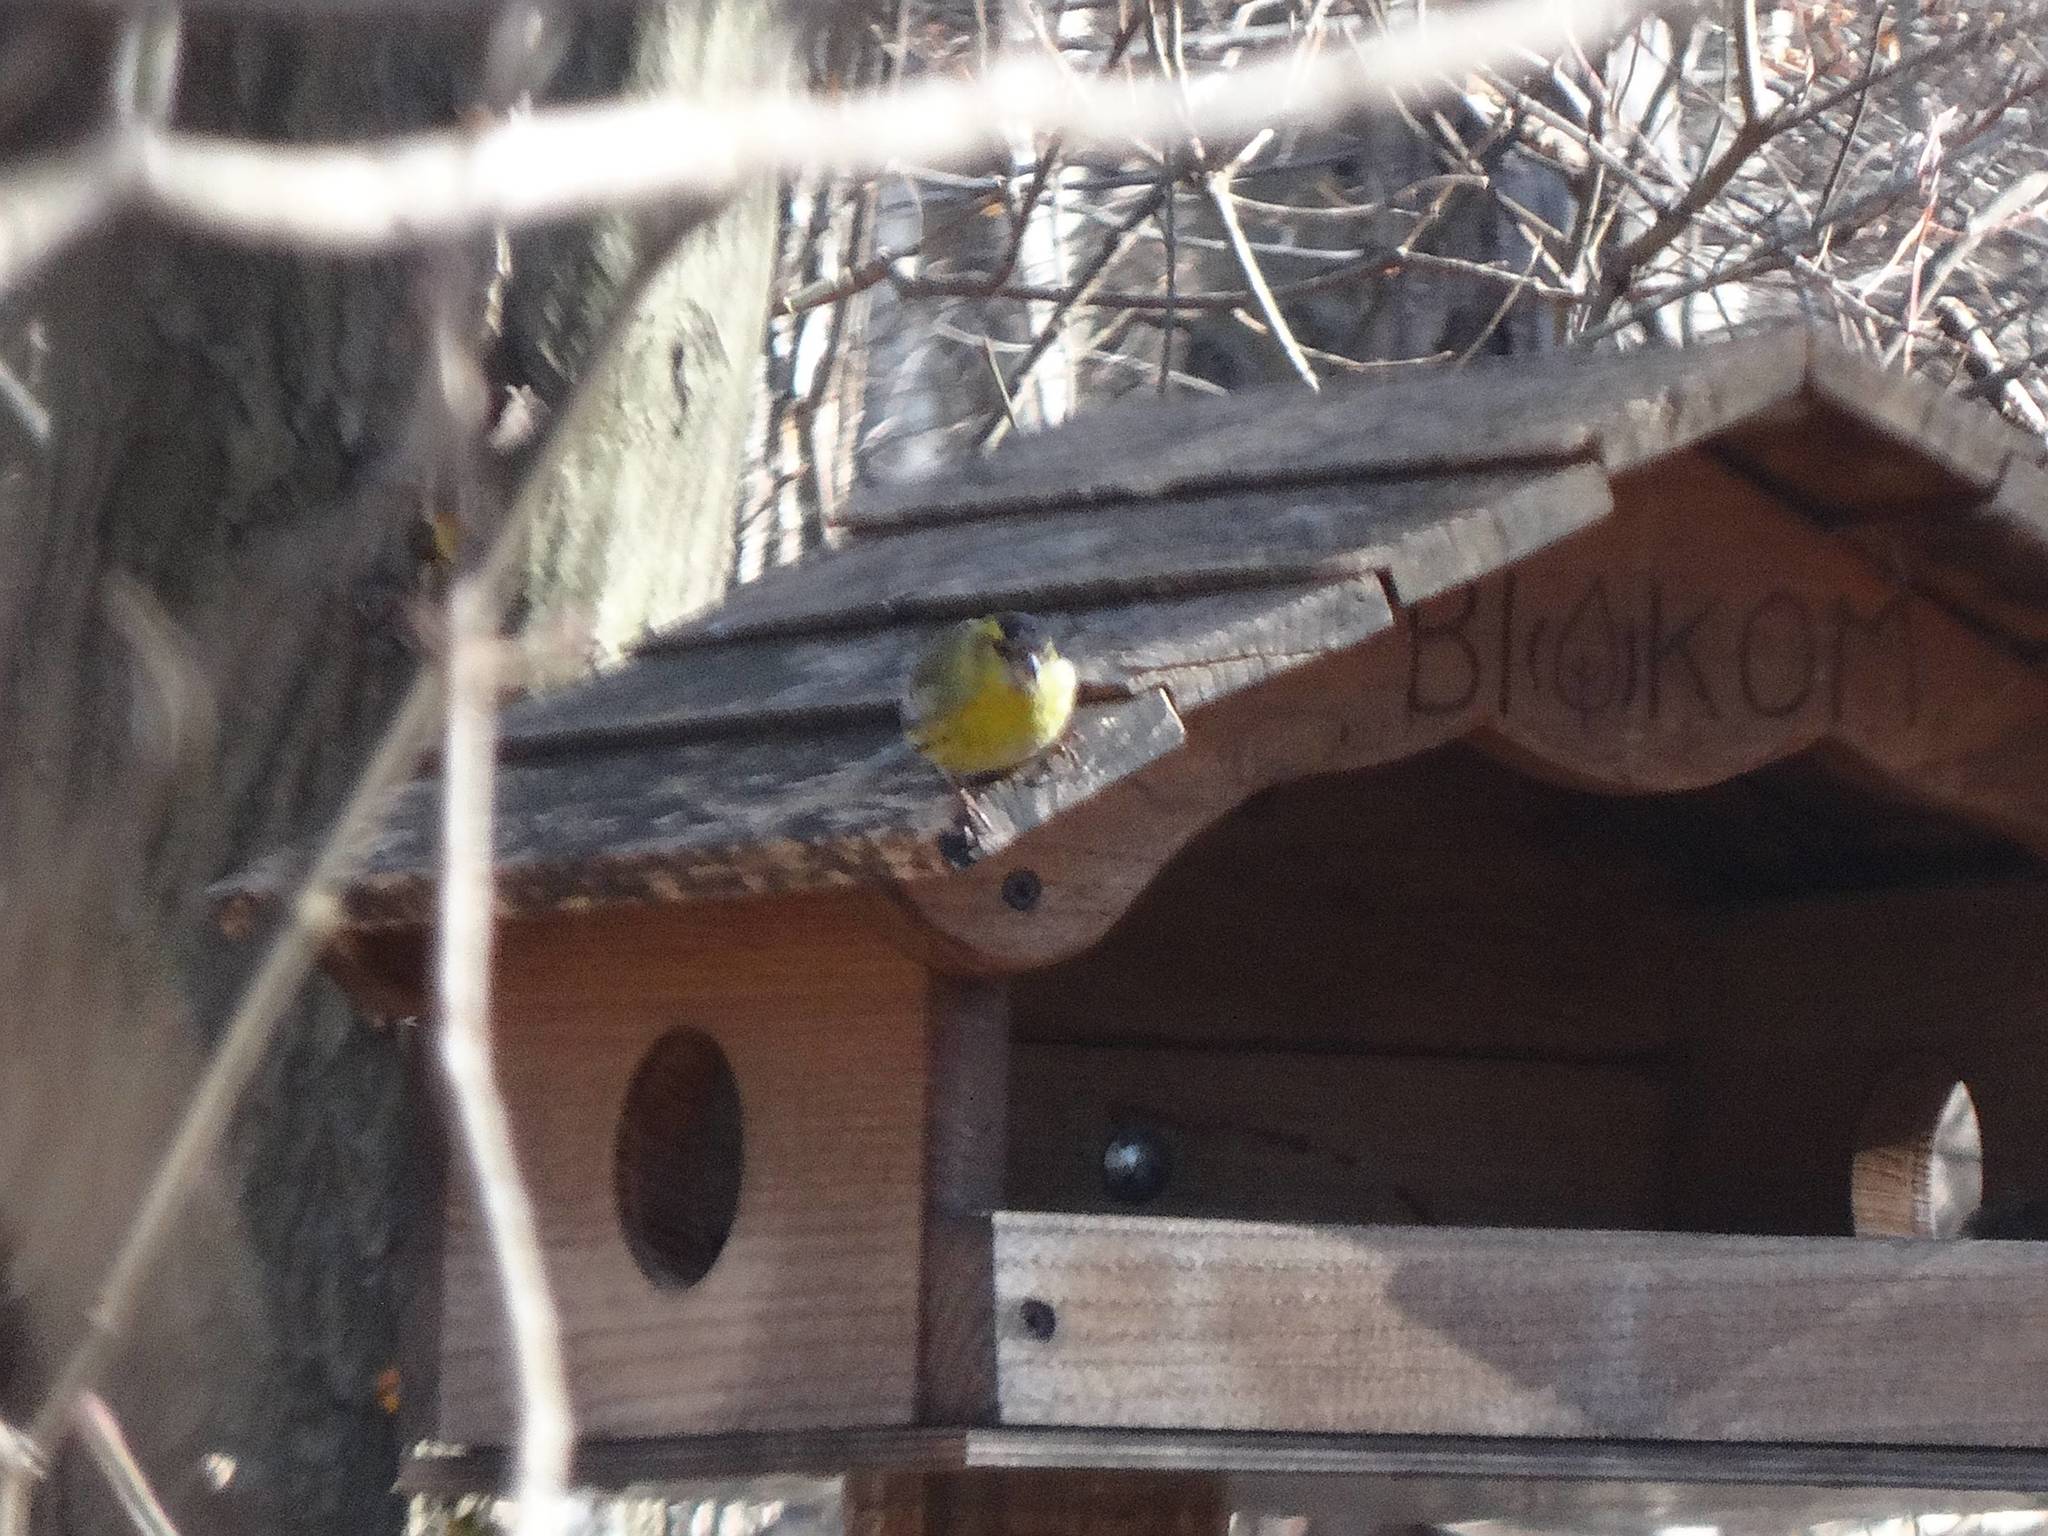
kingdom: Animalia
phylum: Chordata
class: Aves
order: Passeriformes
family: Fringillidae
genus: Spinus
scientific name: Spinus spinus
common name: Eurasian siskin
